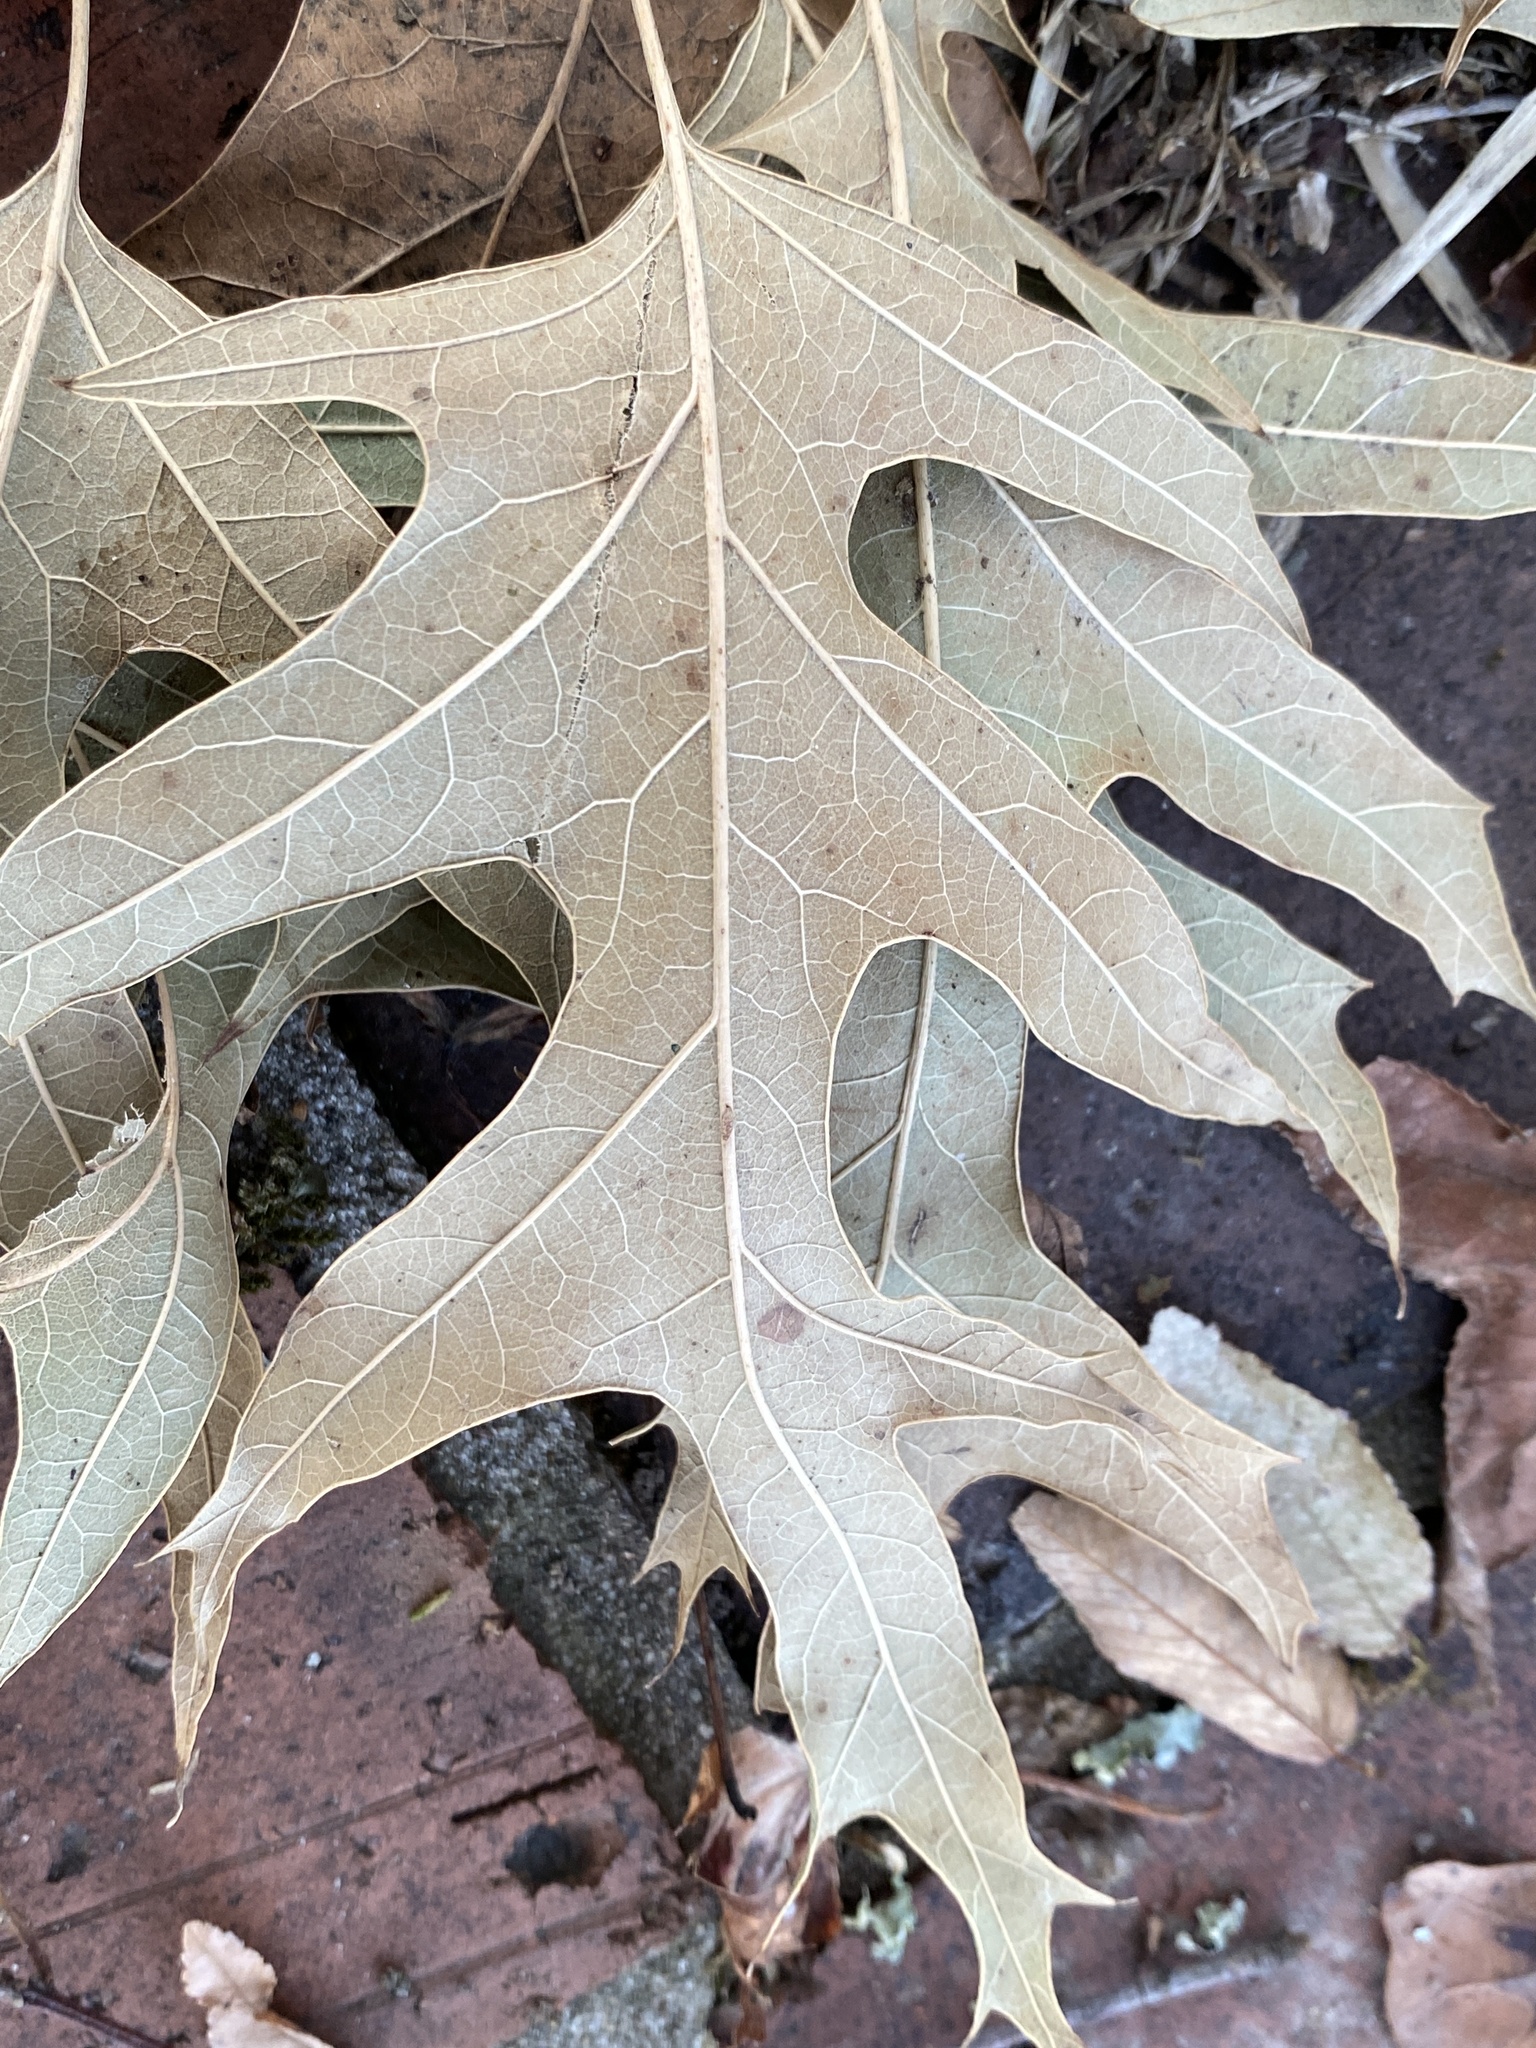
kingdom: Plantae
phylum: Tracheophyta
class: Magnoliopsida
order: Fagales
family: Fagaceae
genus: Quercus
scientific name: Quercus pagoda
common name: Cherrybark oak
